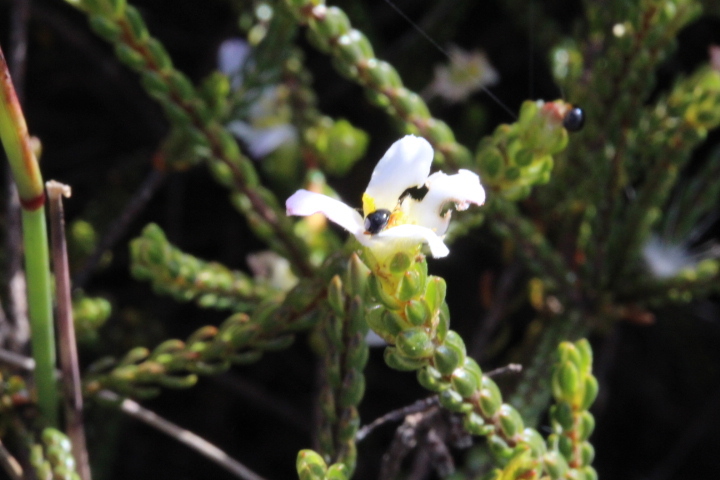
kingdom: Plantae
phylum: Tracheophyta
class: Magnoliopsida
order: Malvales
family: Thymelaeaceae
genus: Lachnaea
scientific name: Lachnaea grandiflora
